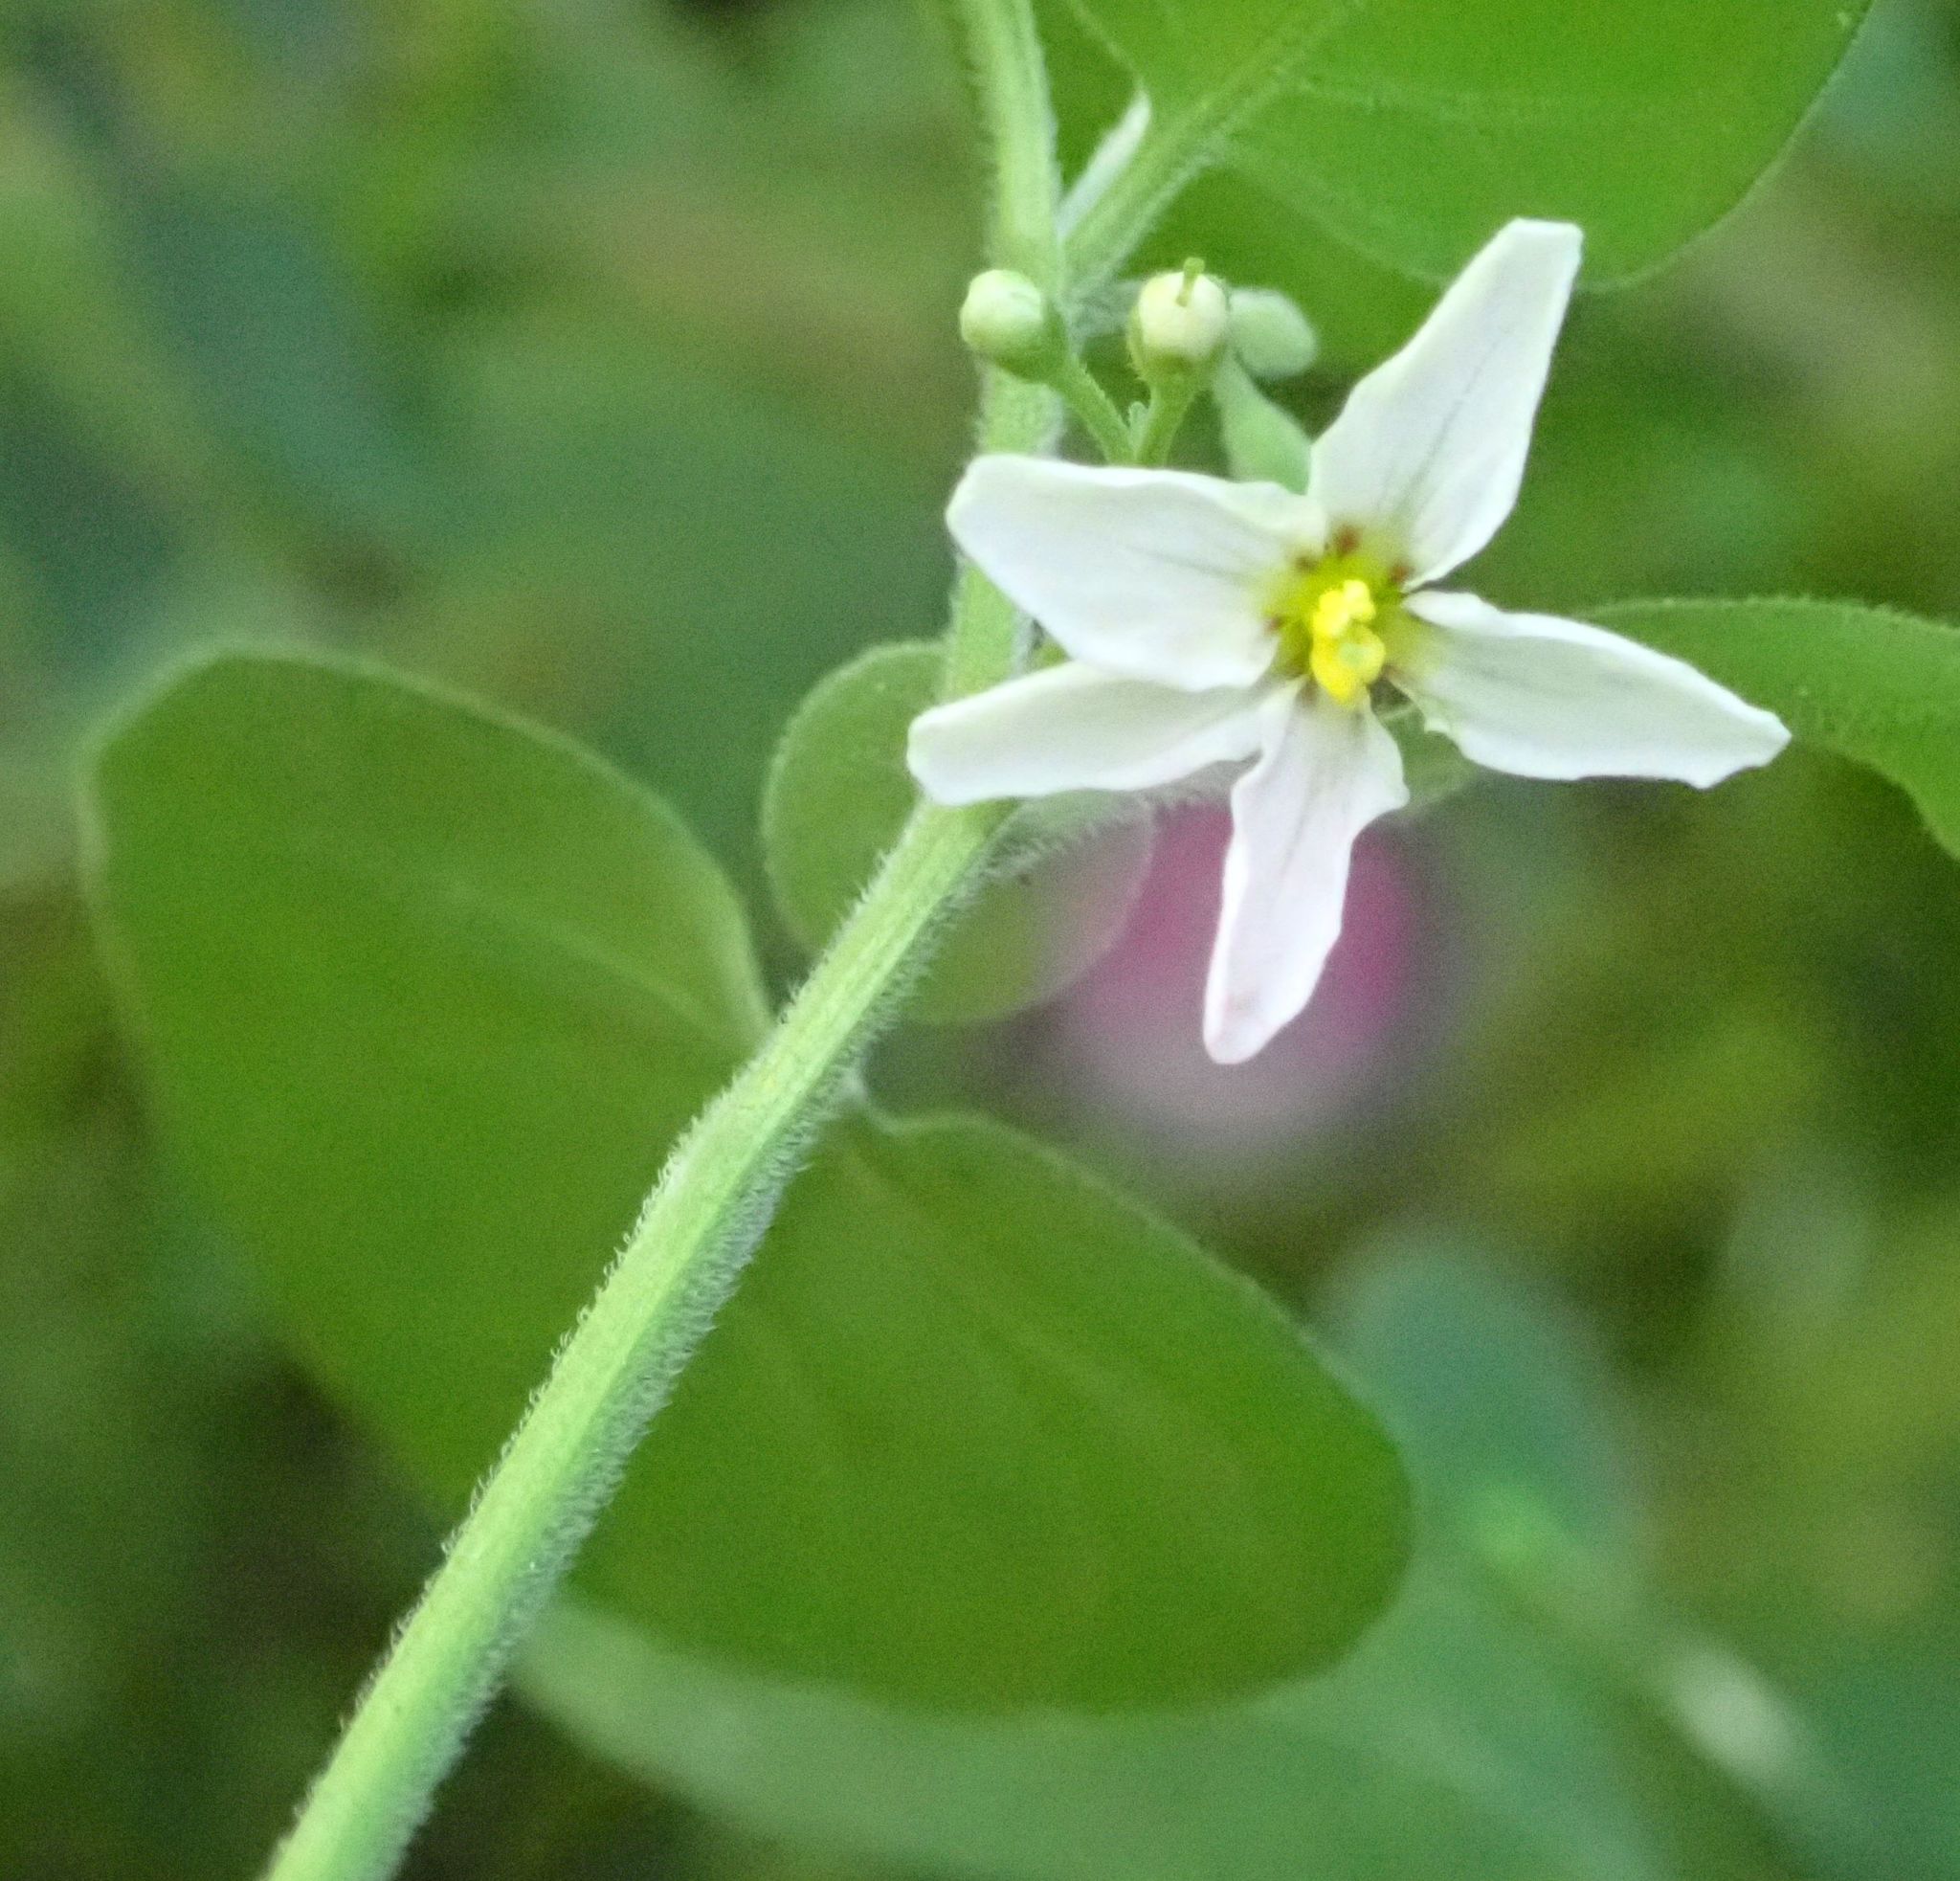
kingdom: Plantae
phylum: Tracheophyta
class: Magnoliopsida
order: Solanales
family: Solanaceae
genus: Solanum
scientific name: Solanum chenopodioides
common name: Tall nightshade
